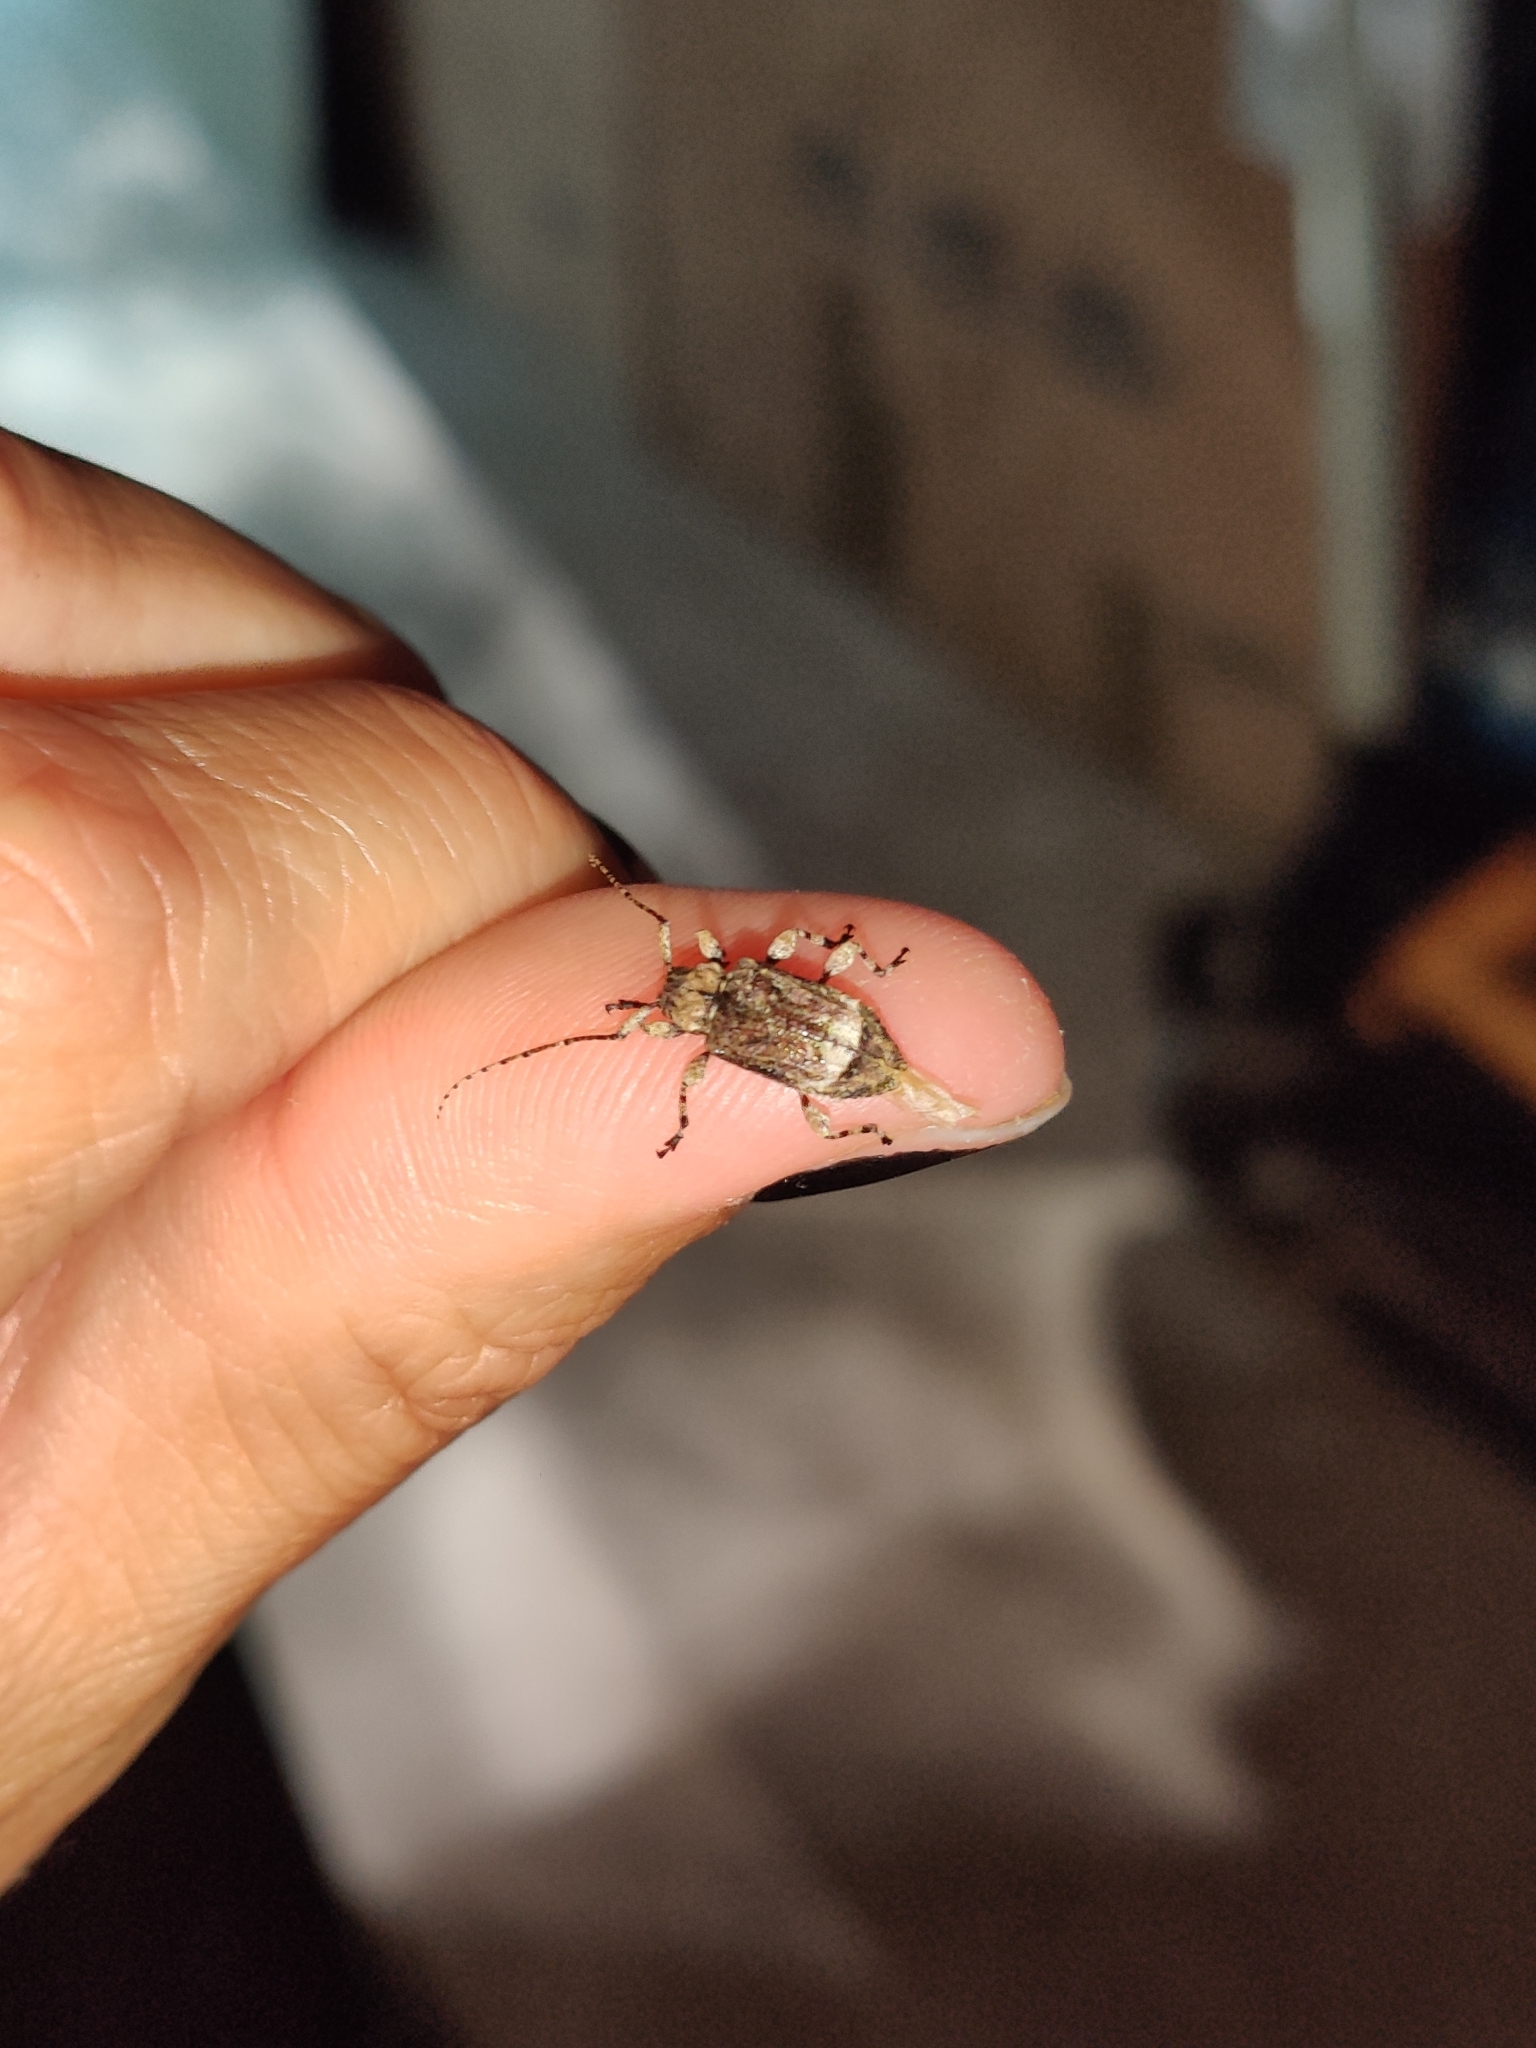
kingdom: Animalia
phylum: Arthropoda
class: Insecta
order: Coleoptera
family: Cerambycidae
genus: Leptostylus
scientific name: Leptostylus transversus
